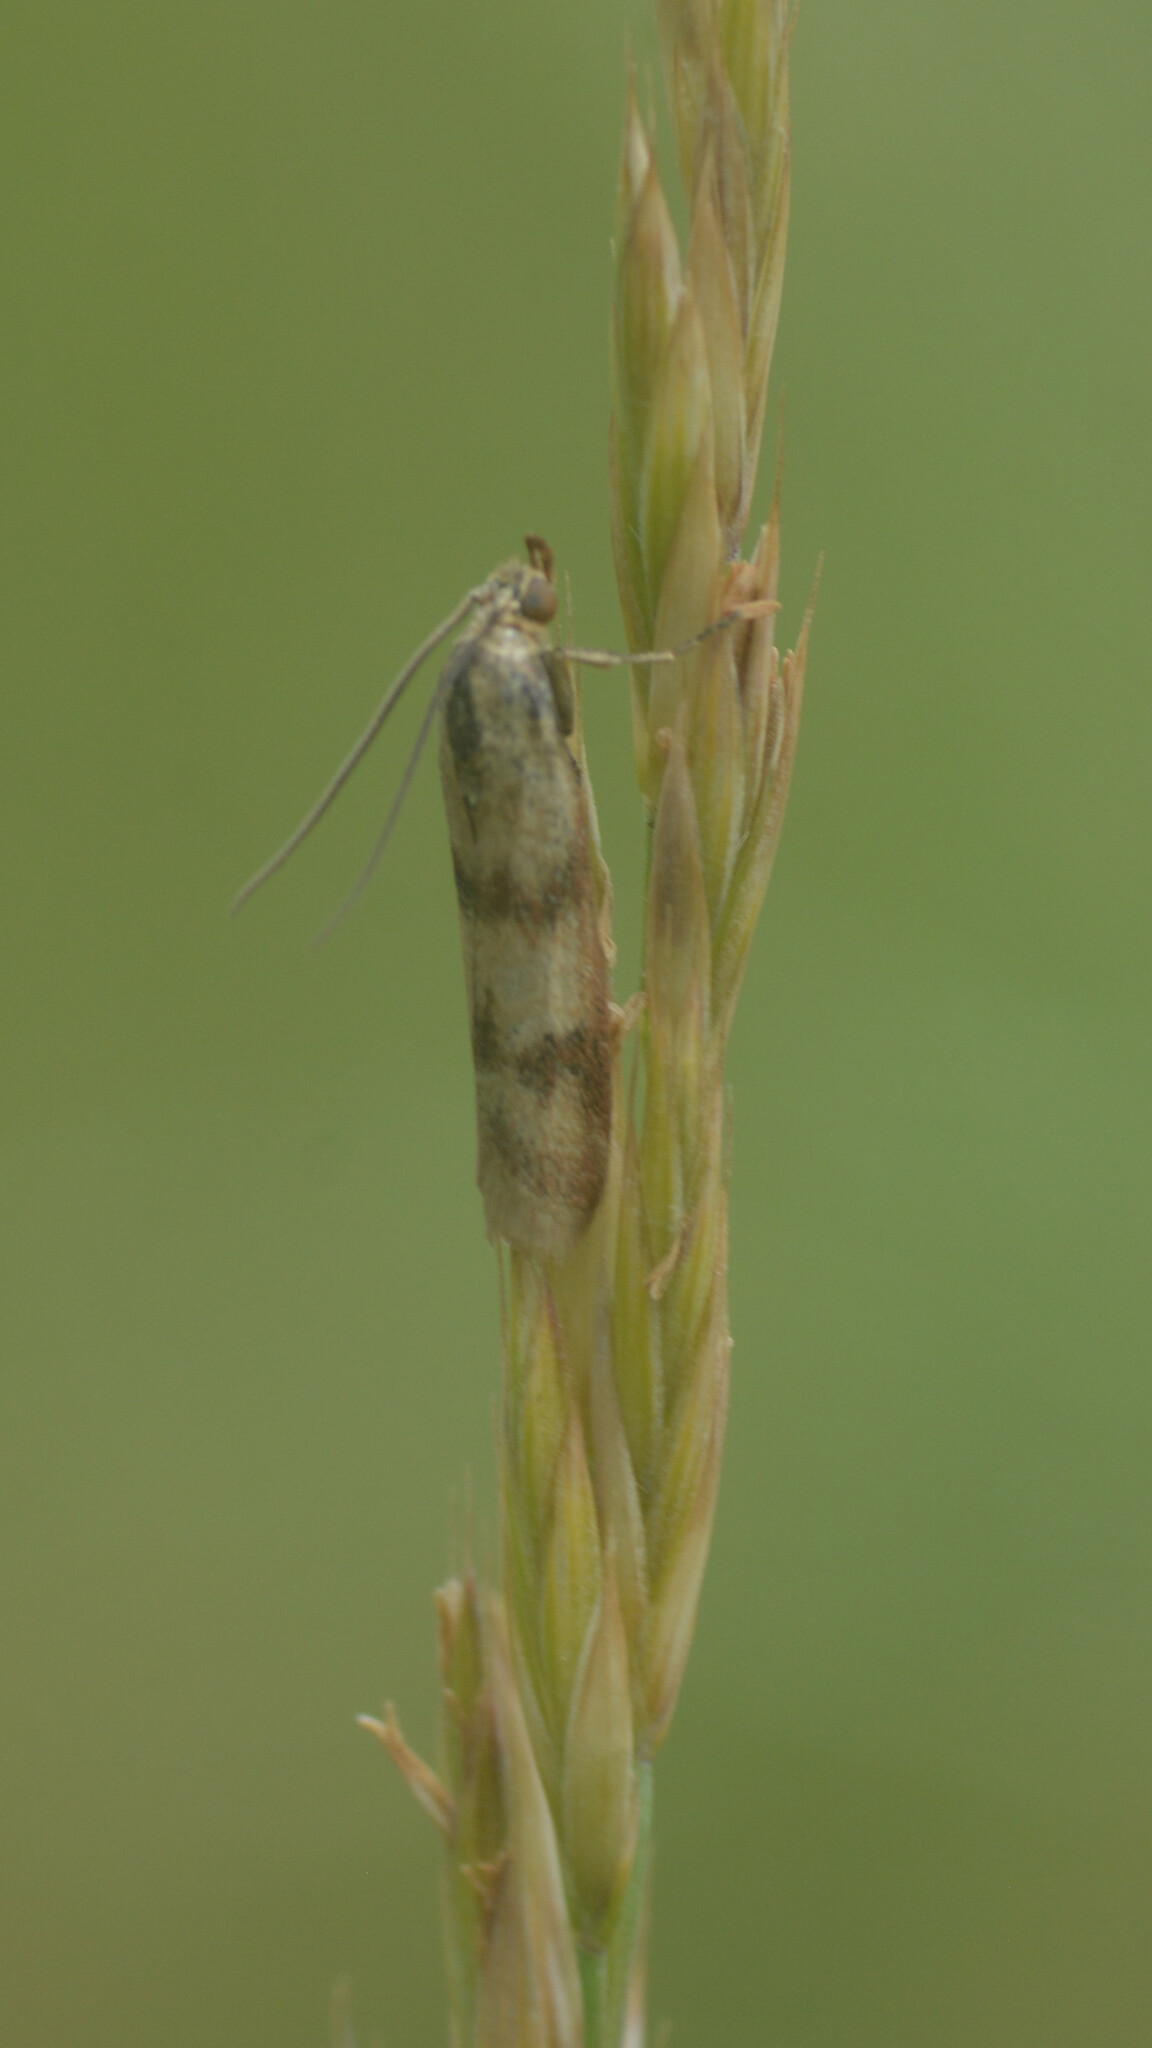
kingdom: Animalia
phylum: Arthropoda
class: Insecta
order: Lepidoptera
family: Pyralidae
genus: Homoeosoma
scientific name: Homoeosoma sinuella
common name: Twin-barred knot-horn
